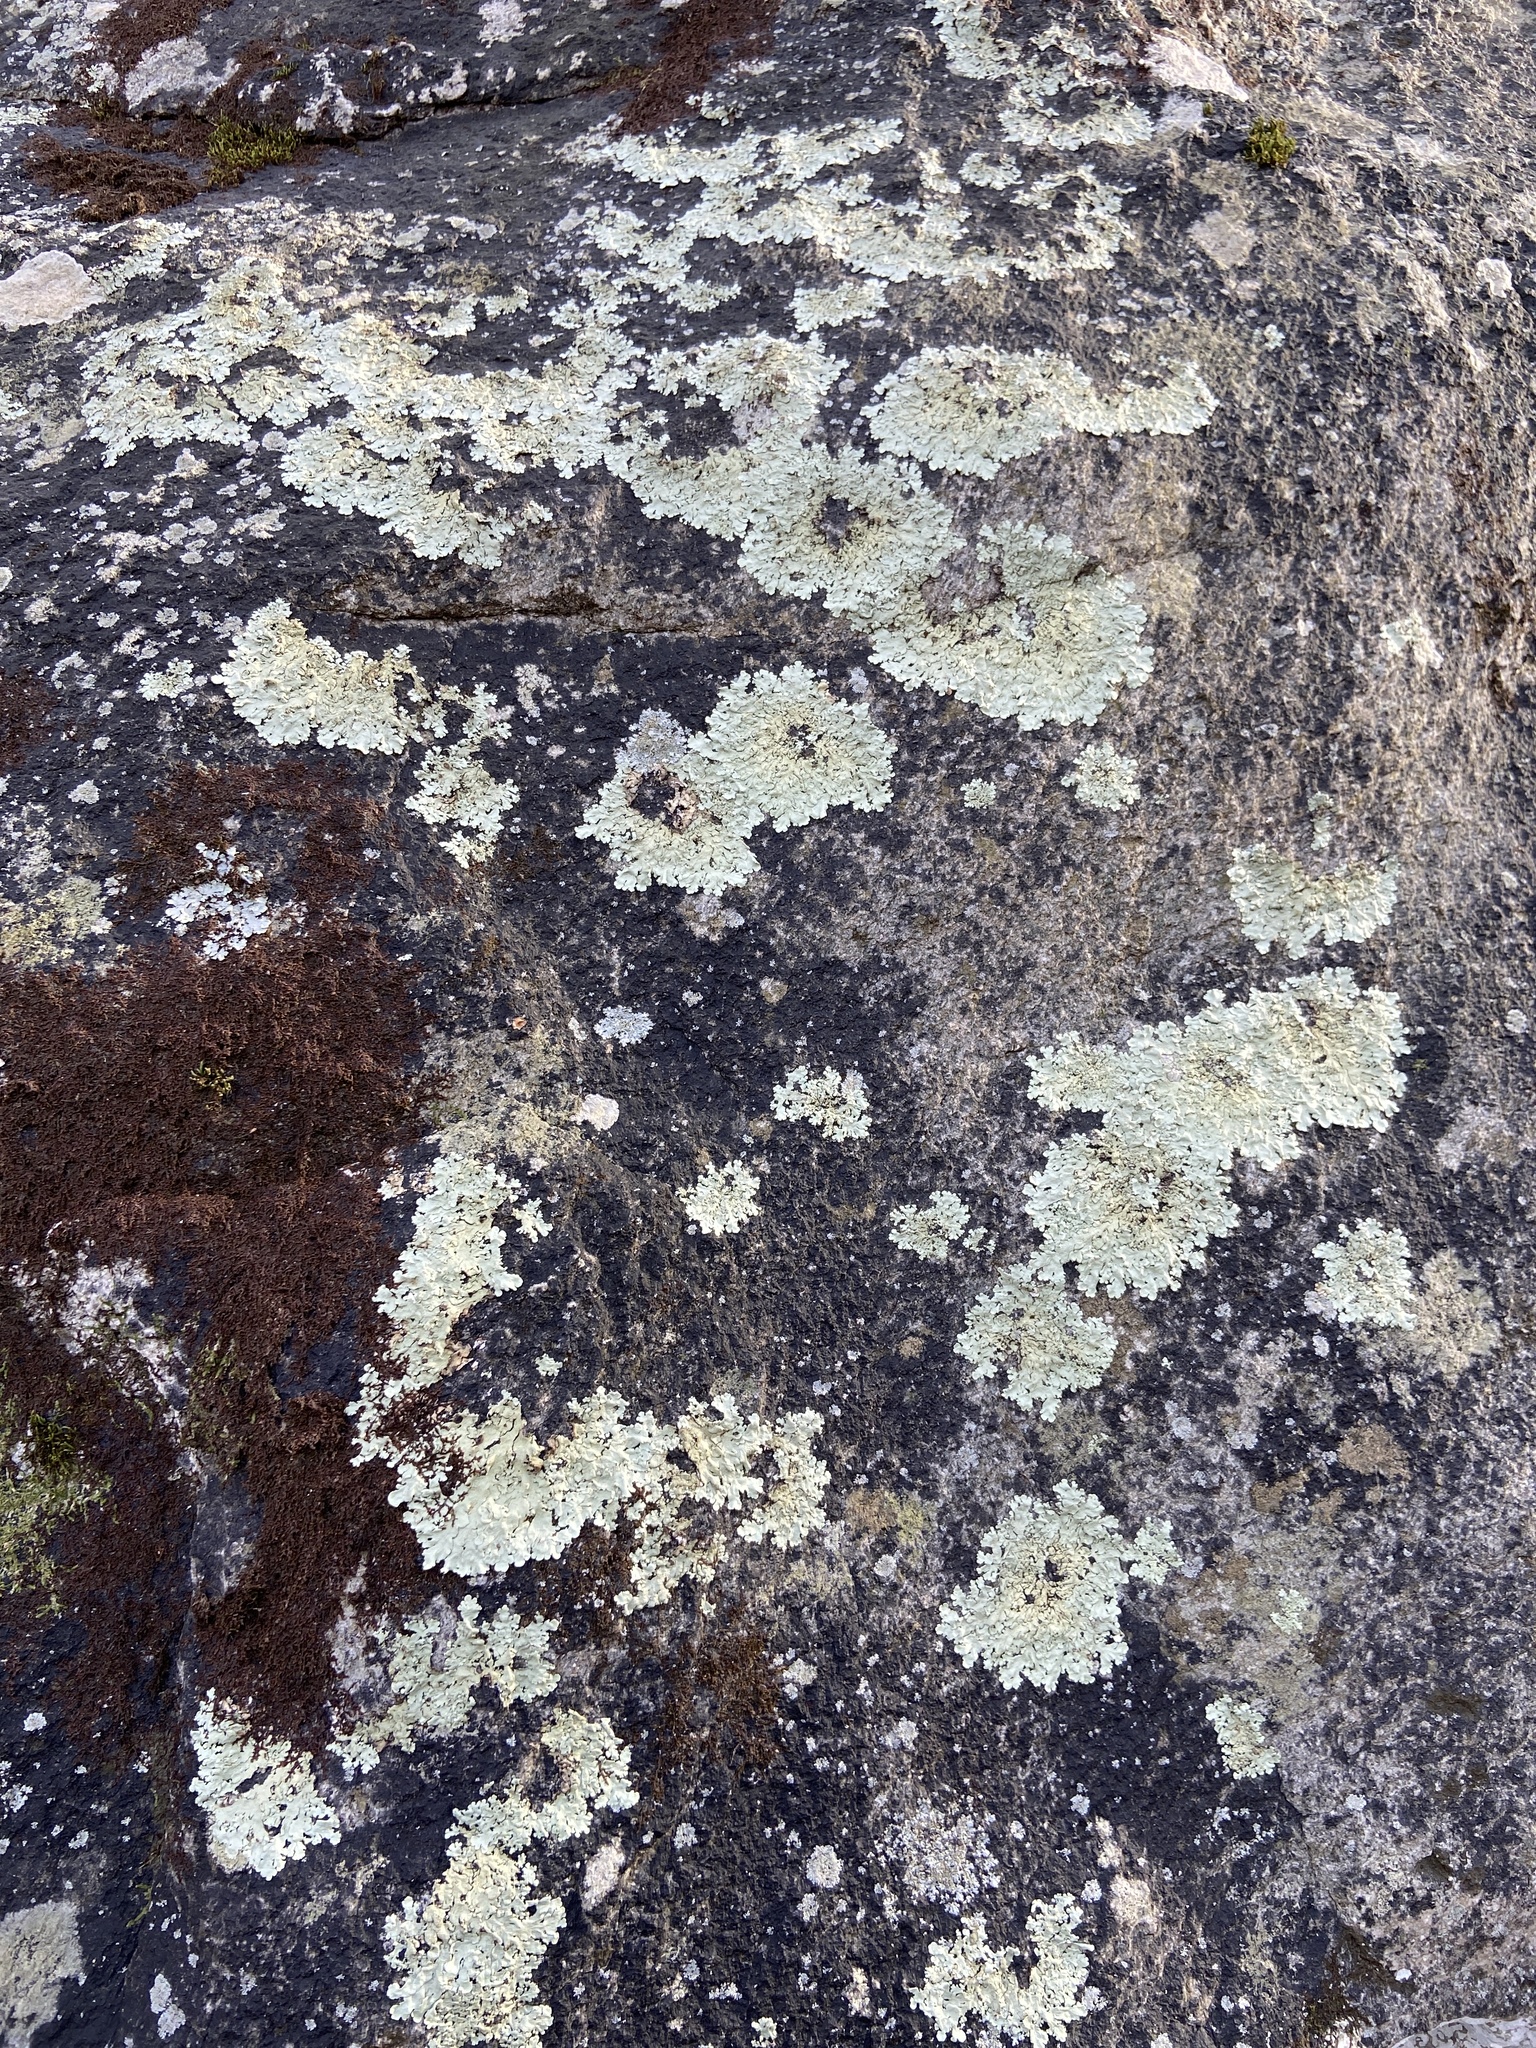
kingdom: Fungi
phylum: Ascomycota
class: Lecanoromycetes
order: Lecanorales
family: Parmeliaceae
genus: Flavoparmelia
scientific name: Flavoparmelia baltimorensis
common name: Rock greenshield
